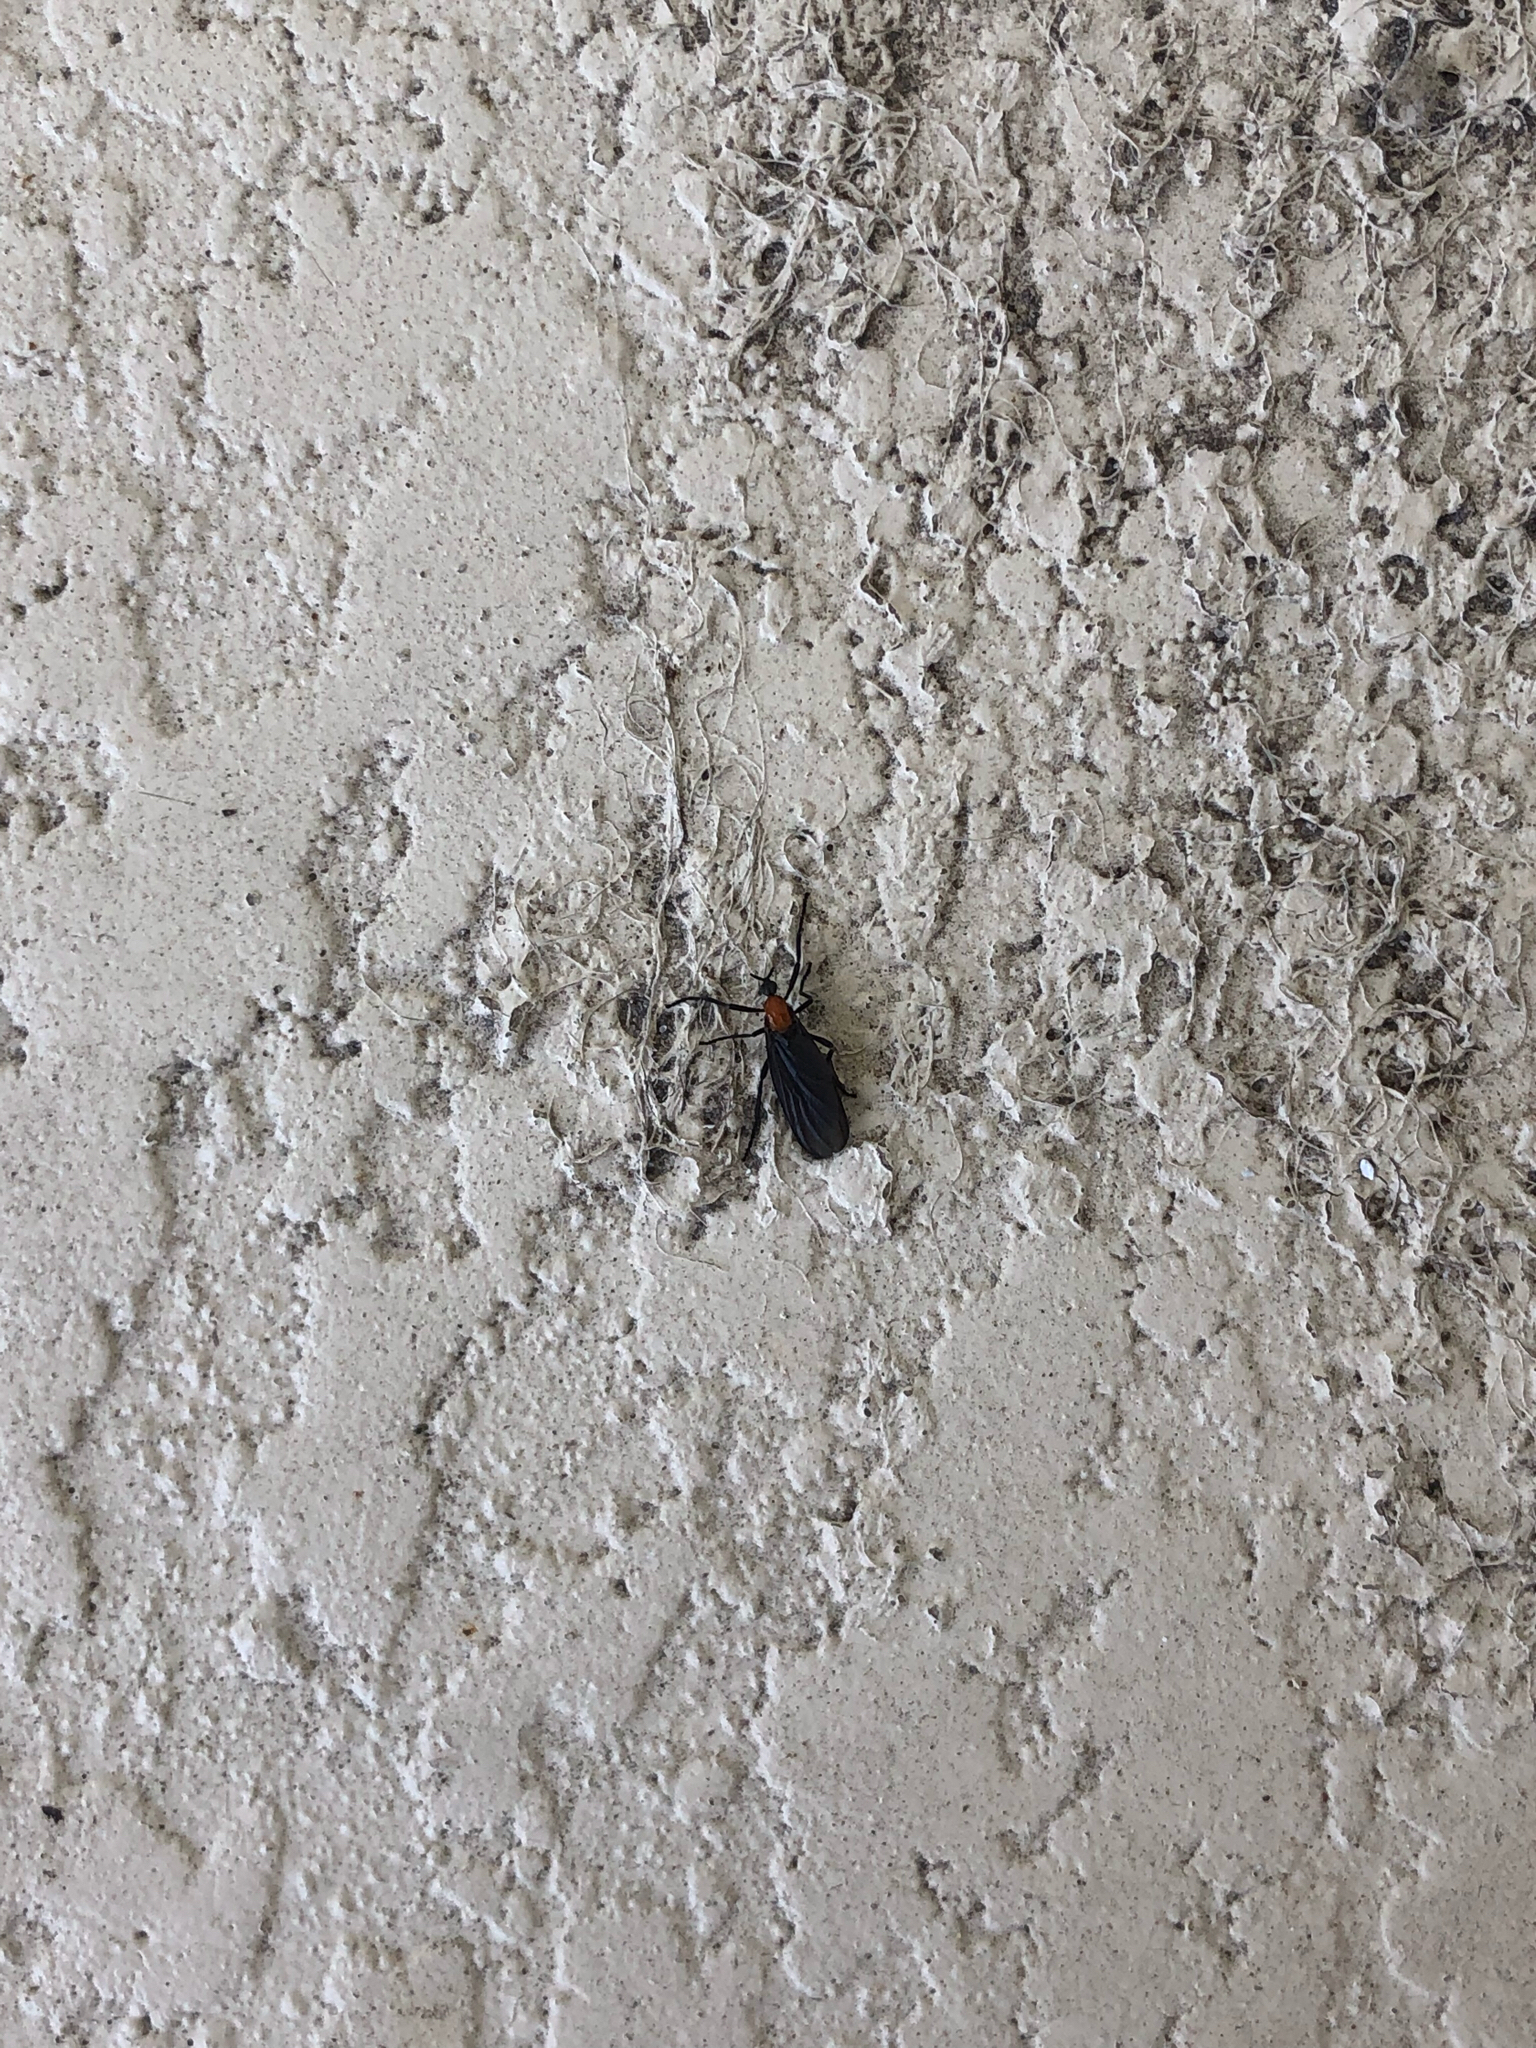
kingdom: Animalia
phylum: Arthropoda
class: Insecta
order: Diptera
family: Bibionidae
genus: Plecia
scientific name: Plecia nearctica
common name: March fly
